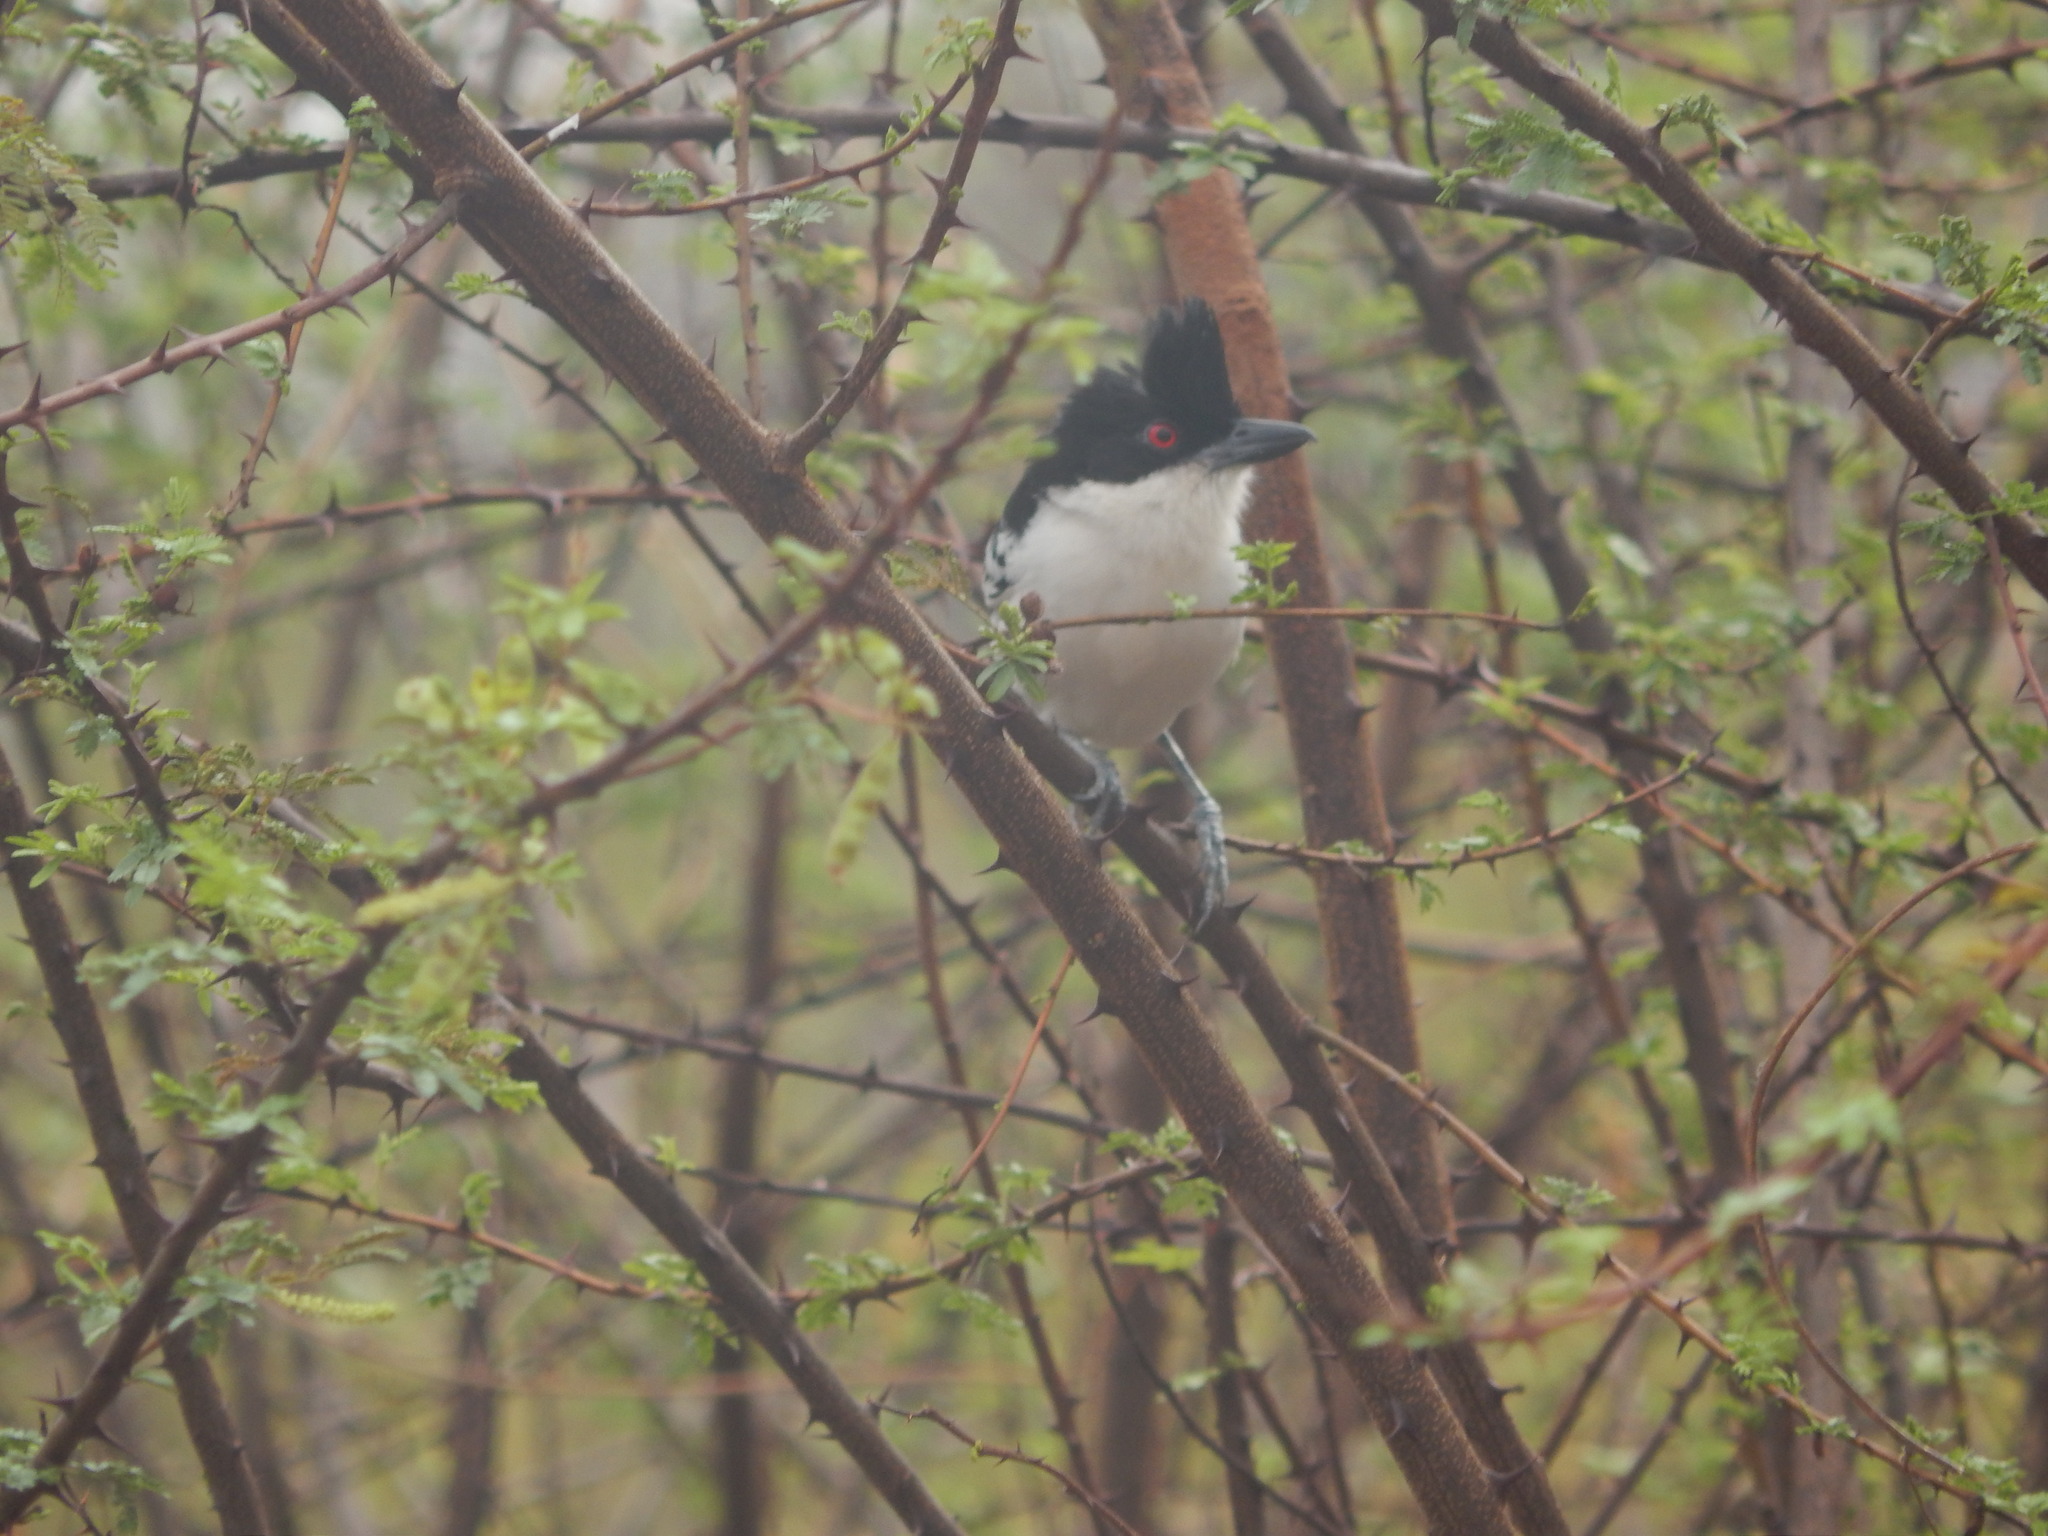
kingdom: Animalia
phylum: Chordata
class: Aves
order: Passeriformes
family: Thamnophilidae
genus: Taraba
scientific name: Taraba major
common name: Great antshrike
